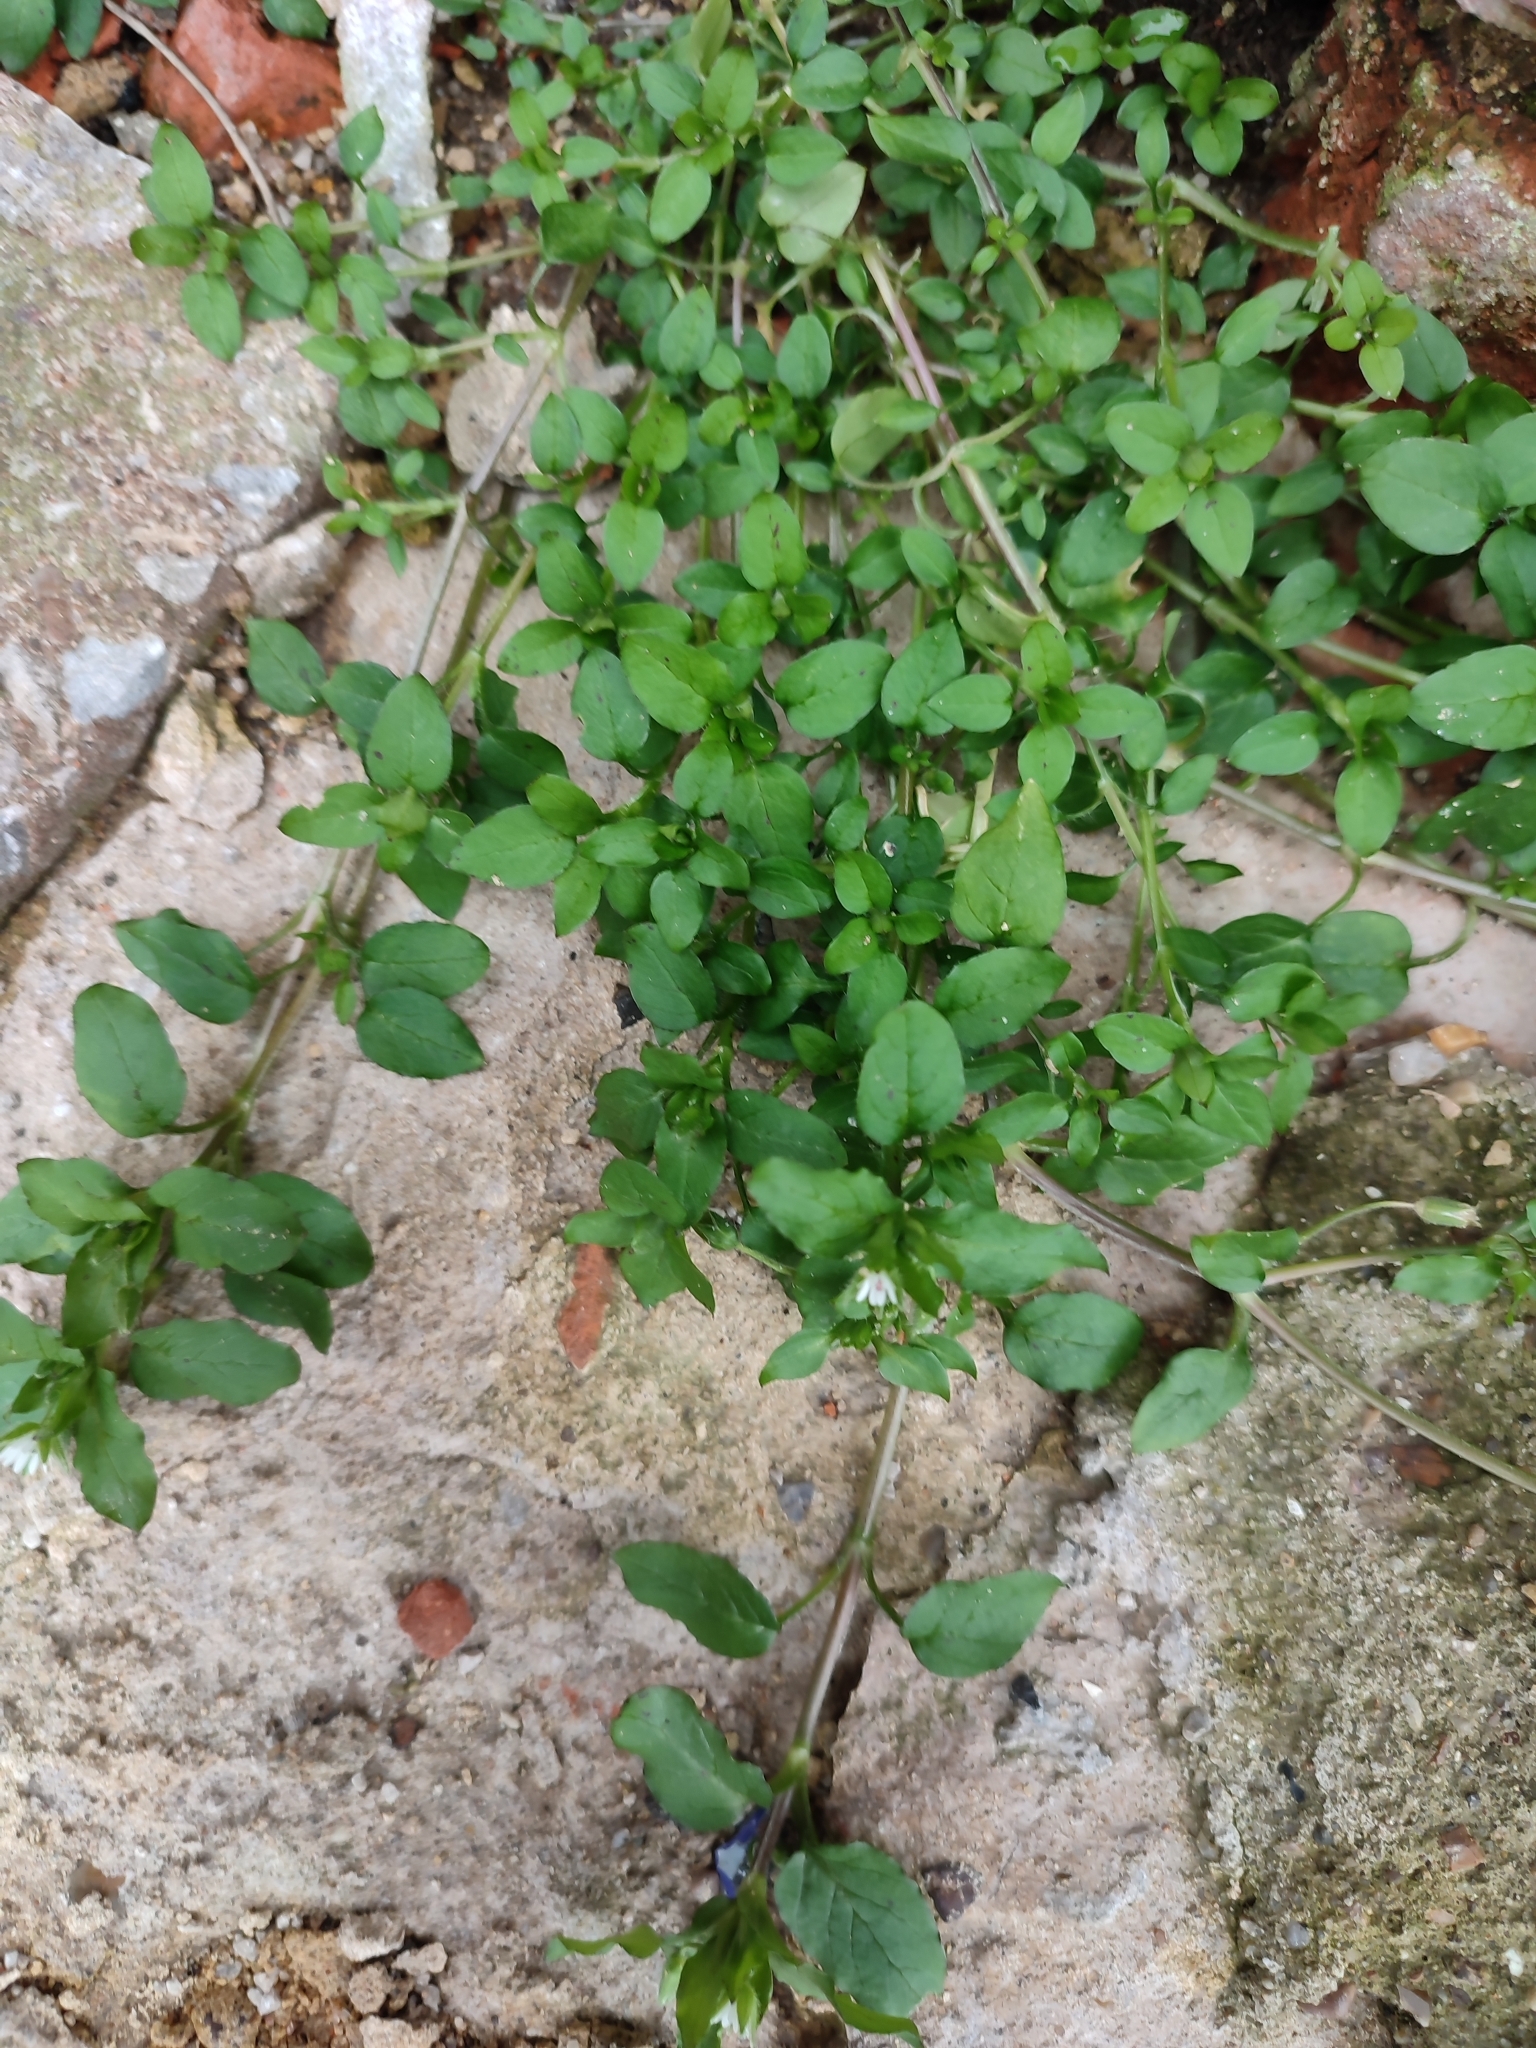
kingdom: Plantae
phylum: Tracheophyta
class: Magnoliopsida
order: Caryophyllales
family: Caryophyllaceae
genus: Stellaria
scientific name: Stellaria media
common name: Common chickweed
